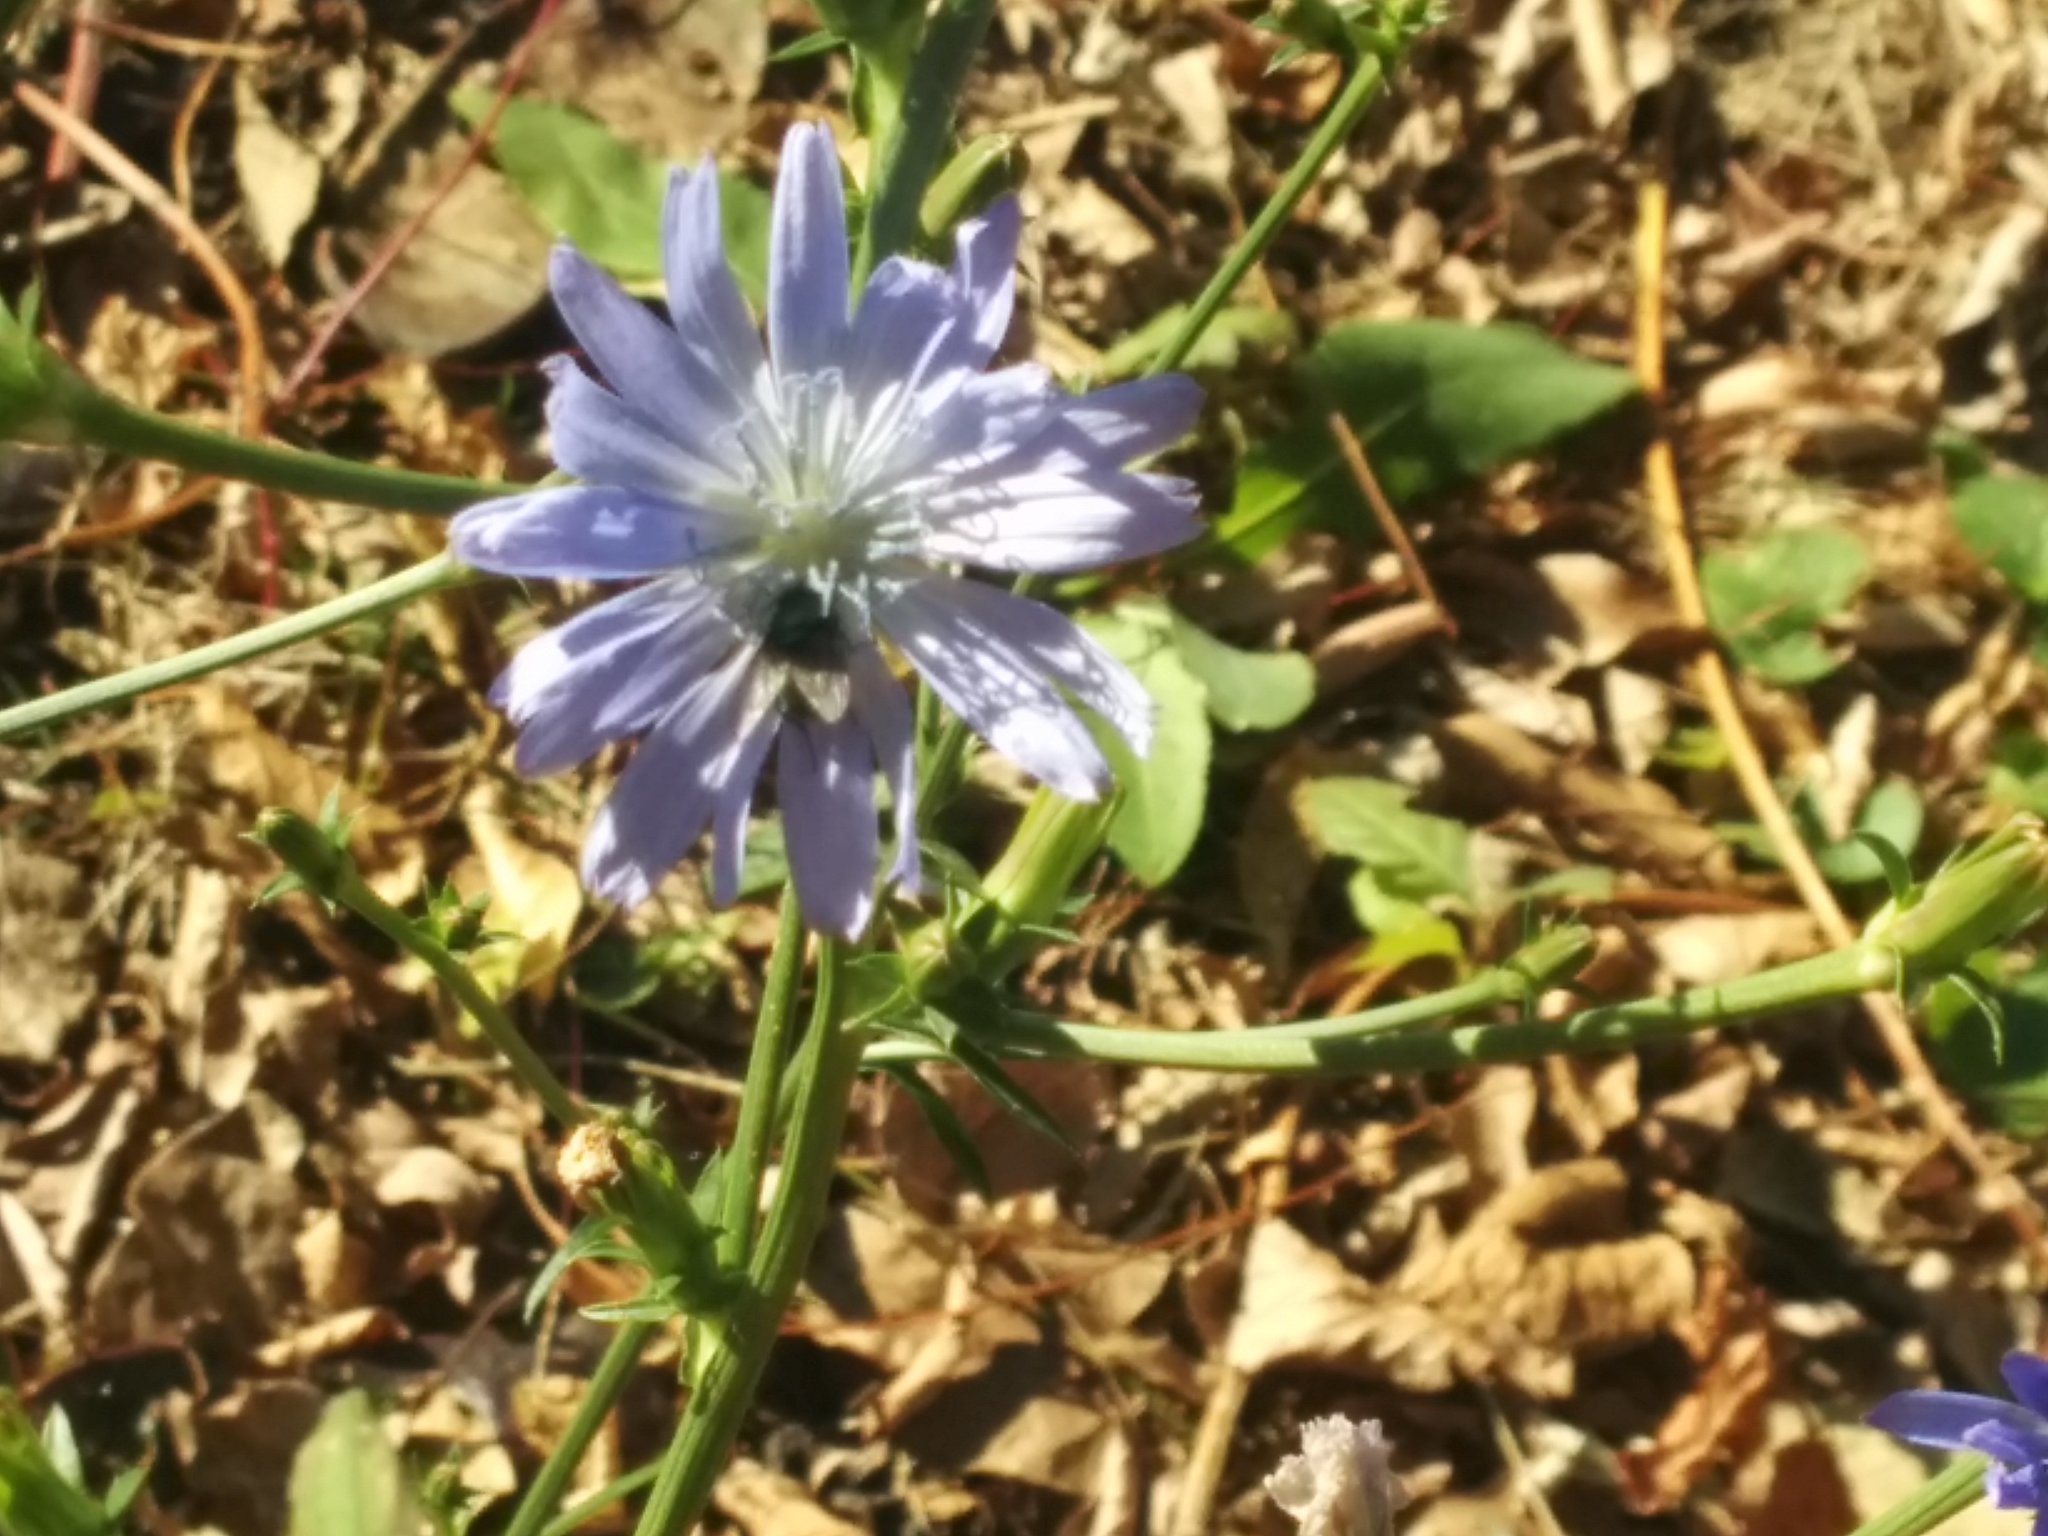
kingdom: Plantae
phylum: Tracheophyta
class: Magnoliopsida
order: Asterales
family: Asteraceae
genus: Cichorium
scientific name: Cichorium intybus
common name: Chicory
